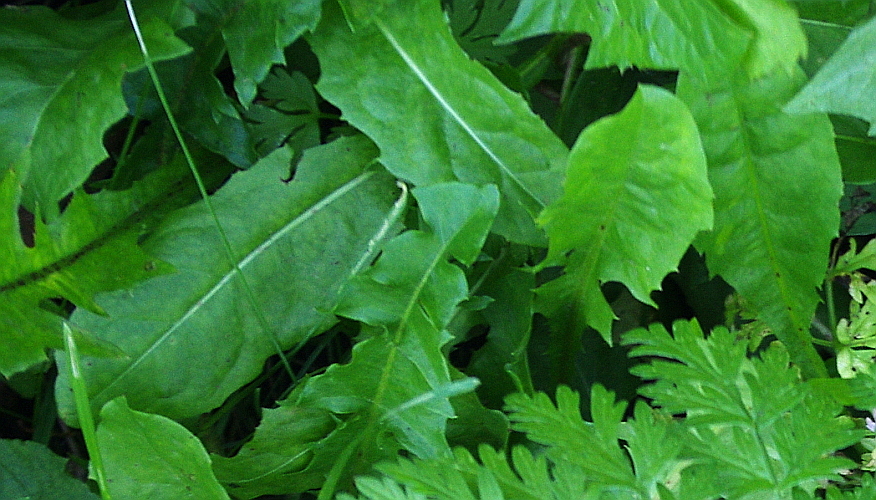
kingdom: Plantae
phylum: Tracheophyta
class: Magnoliopsida
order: Asterales
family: Asteraceae
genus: Taraxacum
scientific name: Taraxacum officinale
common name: Common dandelion
